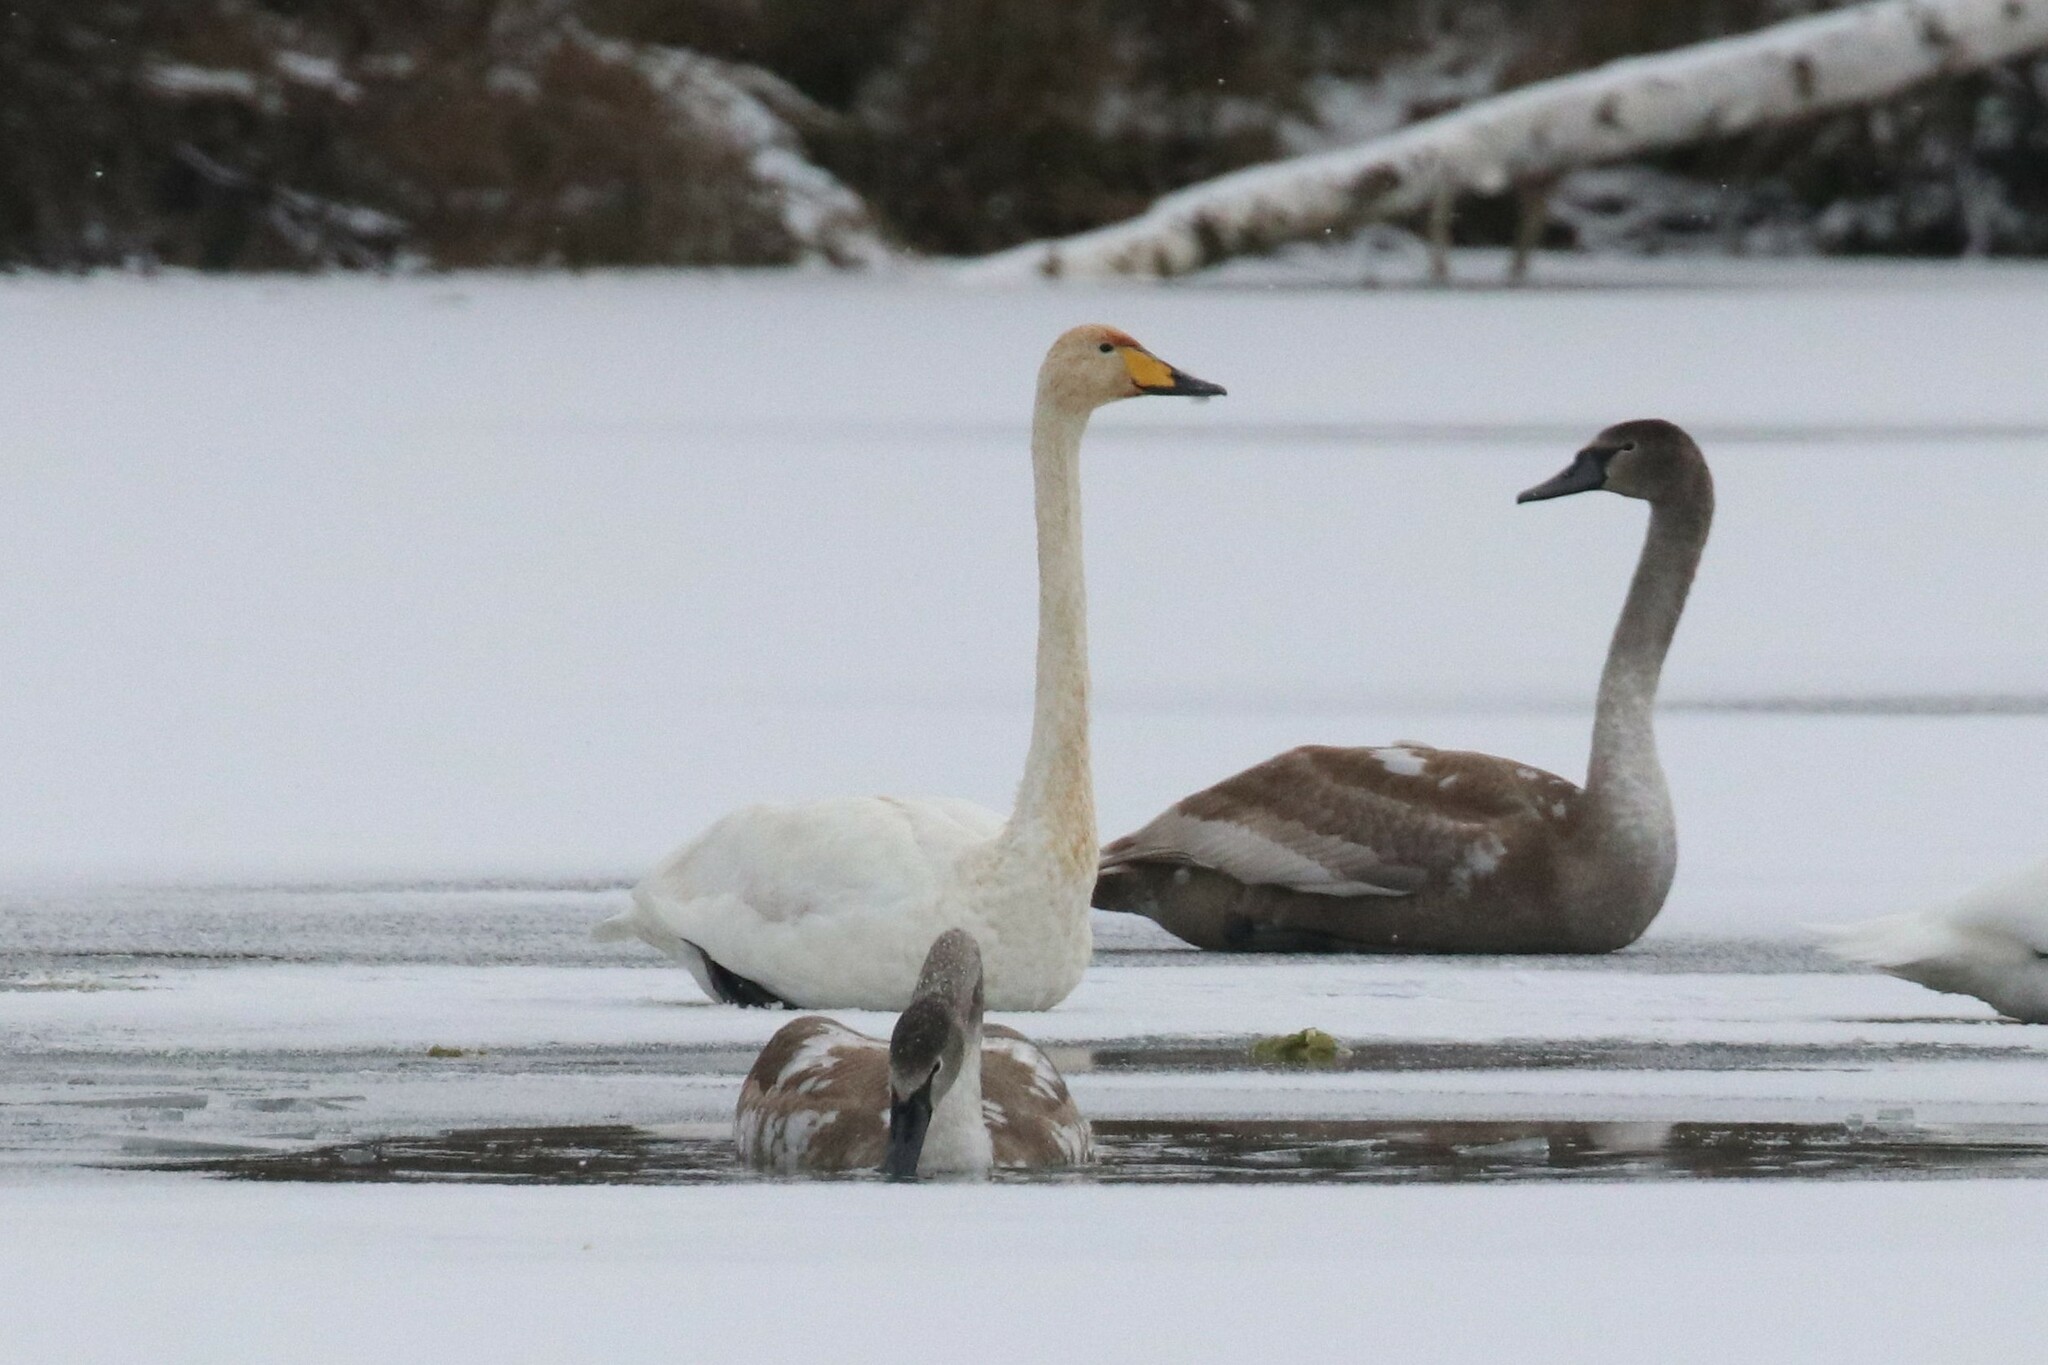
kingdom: Animalia
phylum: Chordata
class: Aves
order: Anseriformes
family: Anatidae
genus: Cygnus
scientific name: Cygnus cygnus
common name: Whooper swan
